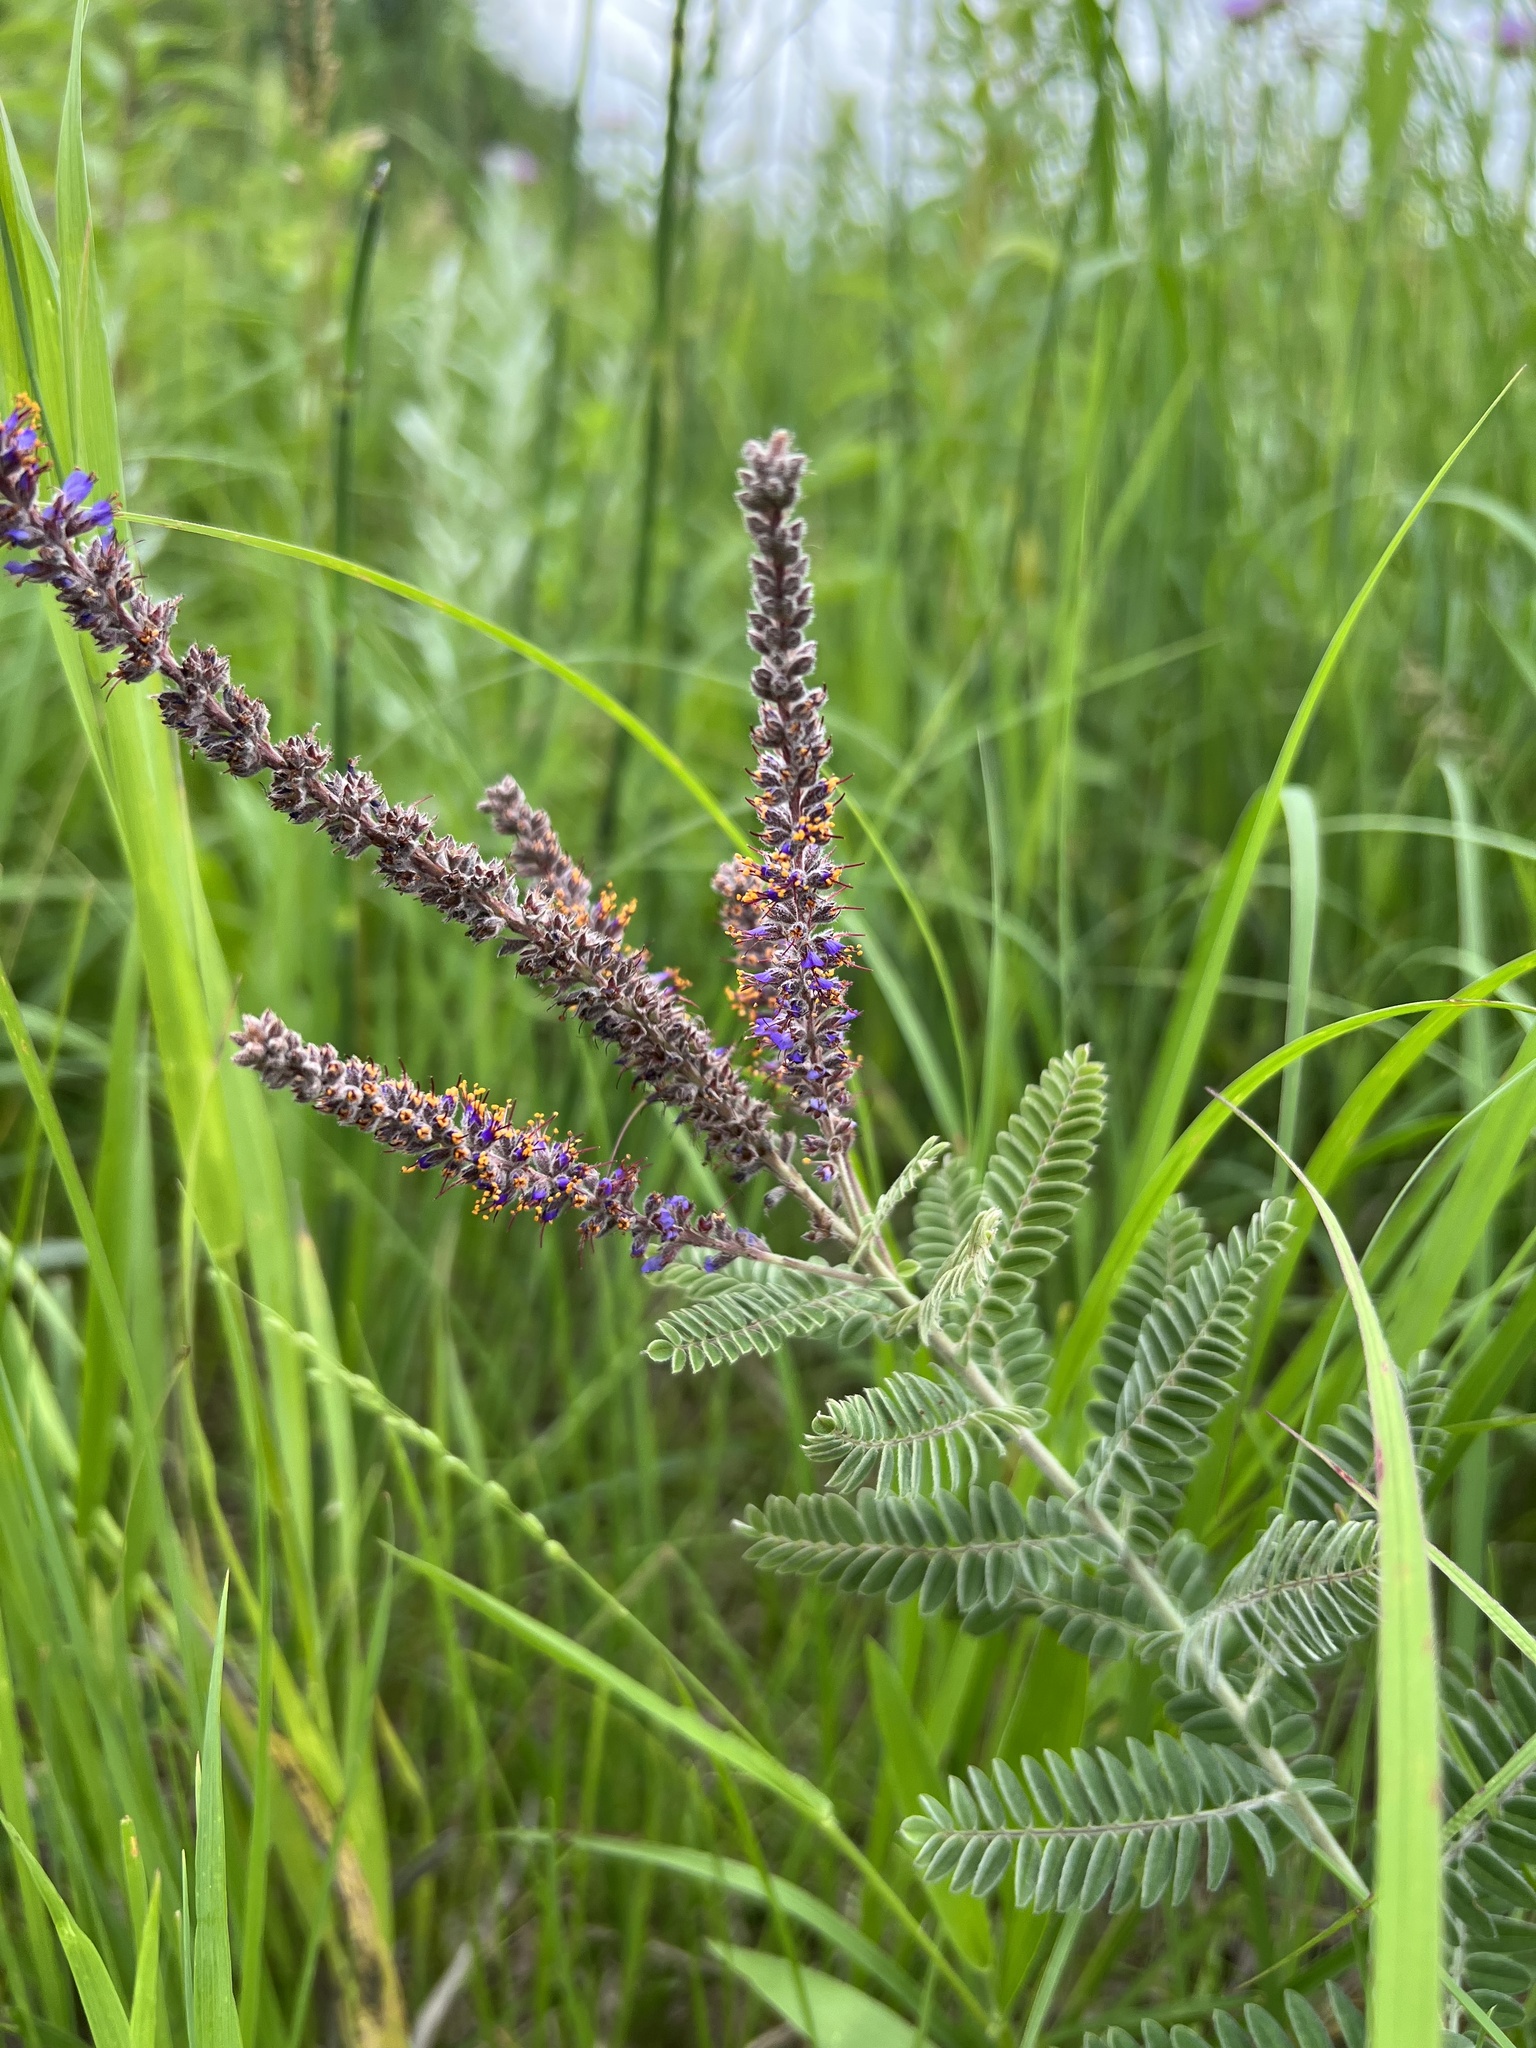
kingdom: Plantae
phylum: Tracheophyta
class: Magnoliopsida
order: Fabales
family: Fabaceae
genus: Amorpha
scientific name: Amorpha canescens
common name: Leadplant
